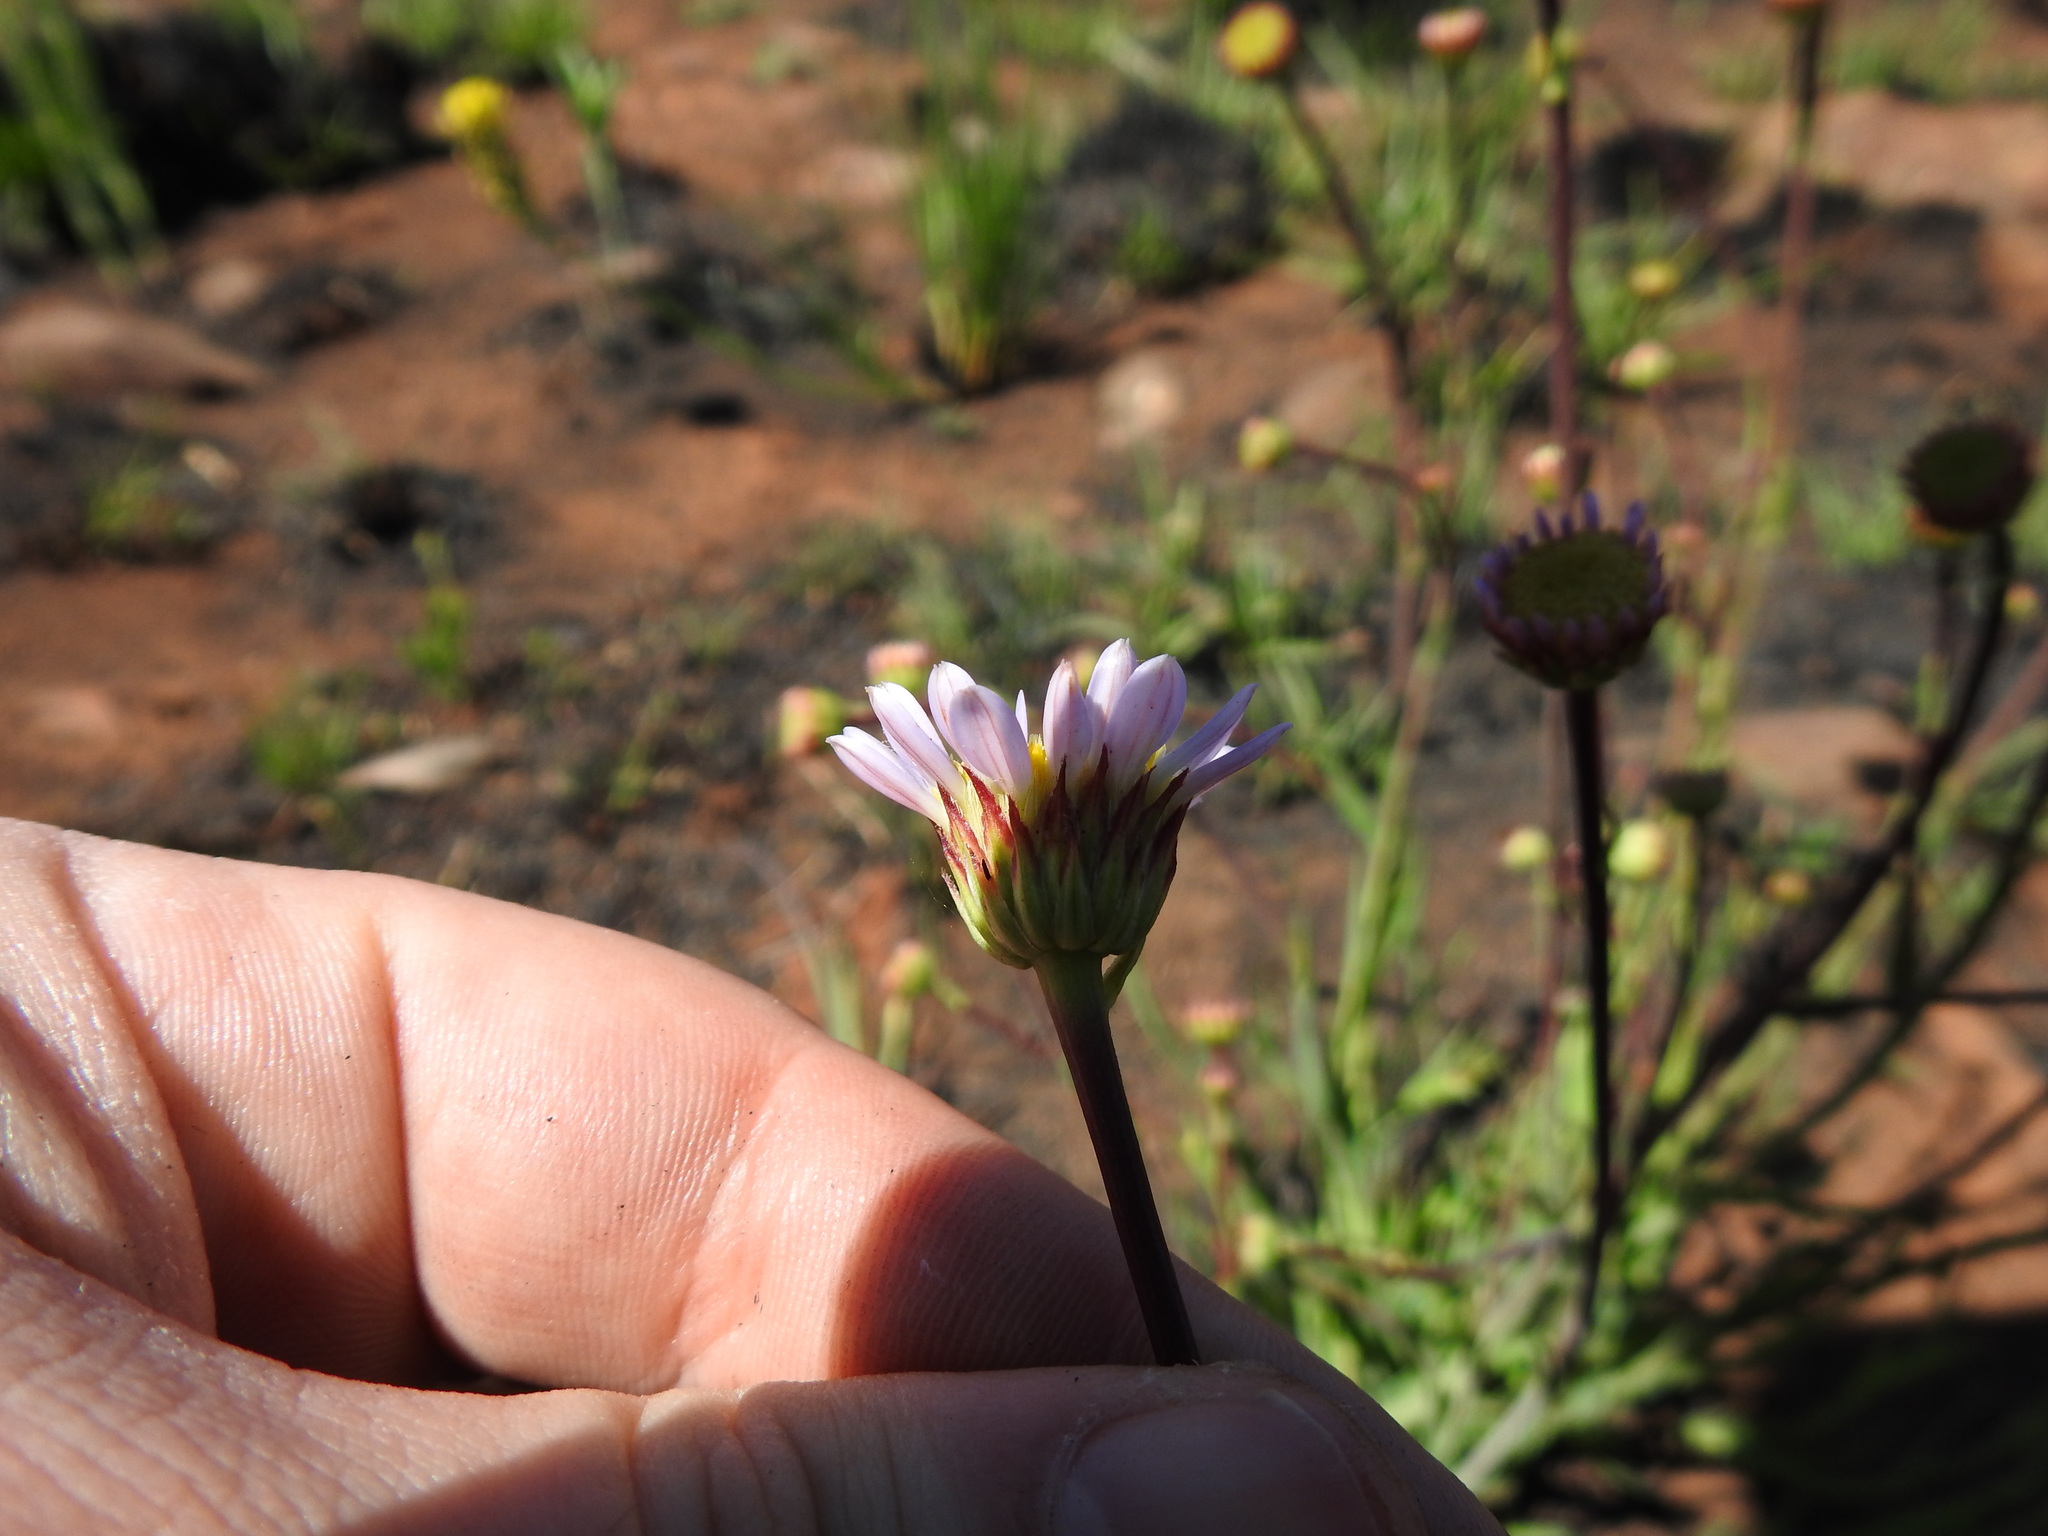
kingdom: Plantae
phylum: Tracheophyta
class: Magnoliopsida
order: Asterales
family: Asteraceae
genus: Afroaster
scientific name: Afroaster serrulatus
